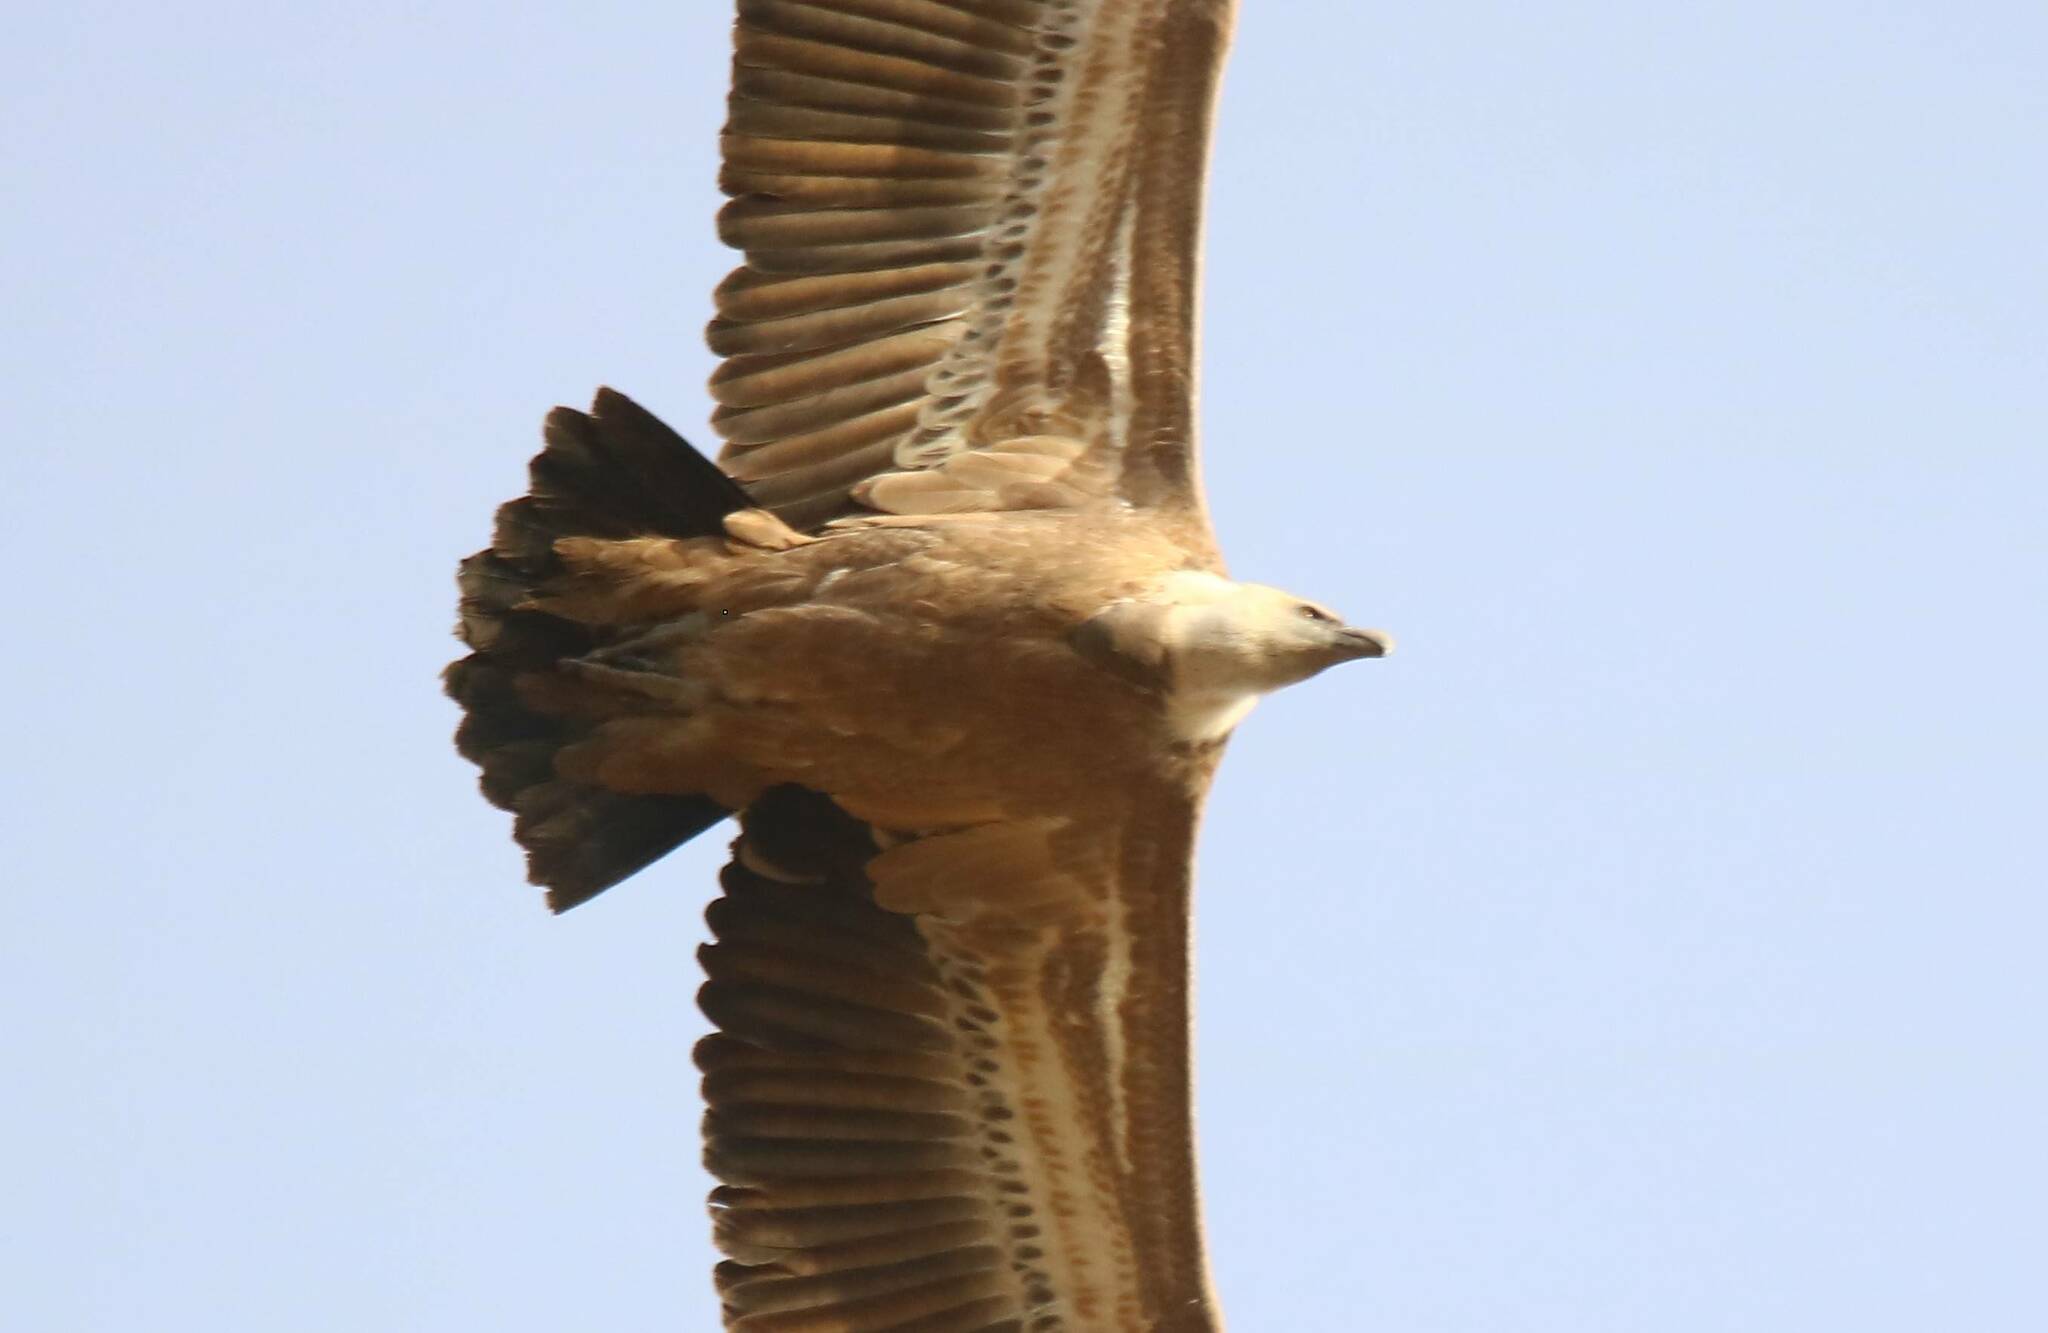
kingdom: Animalia
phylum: Chordata
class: Aves
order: Accipitriformes
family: Accipitridae
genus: Gyps
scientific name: Gyps fulvus
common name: Griffon vulture
